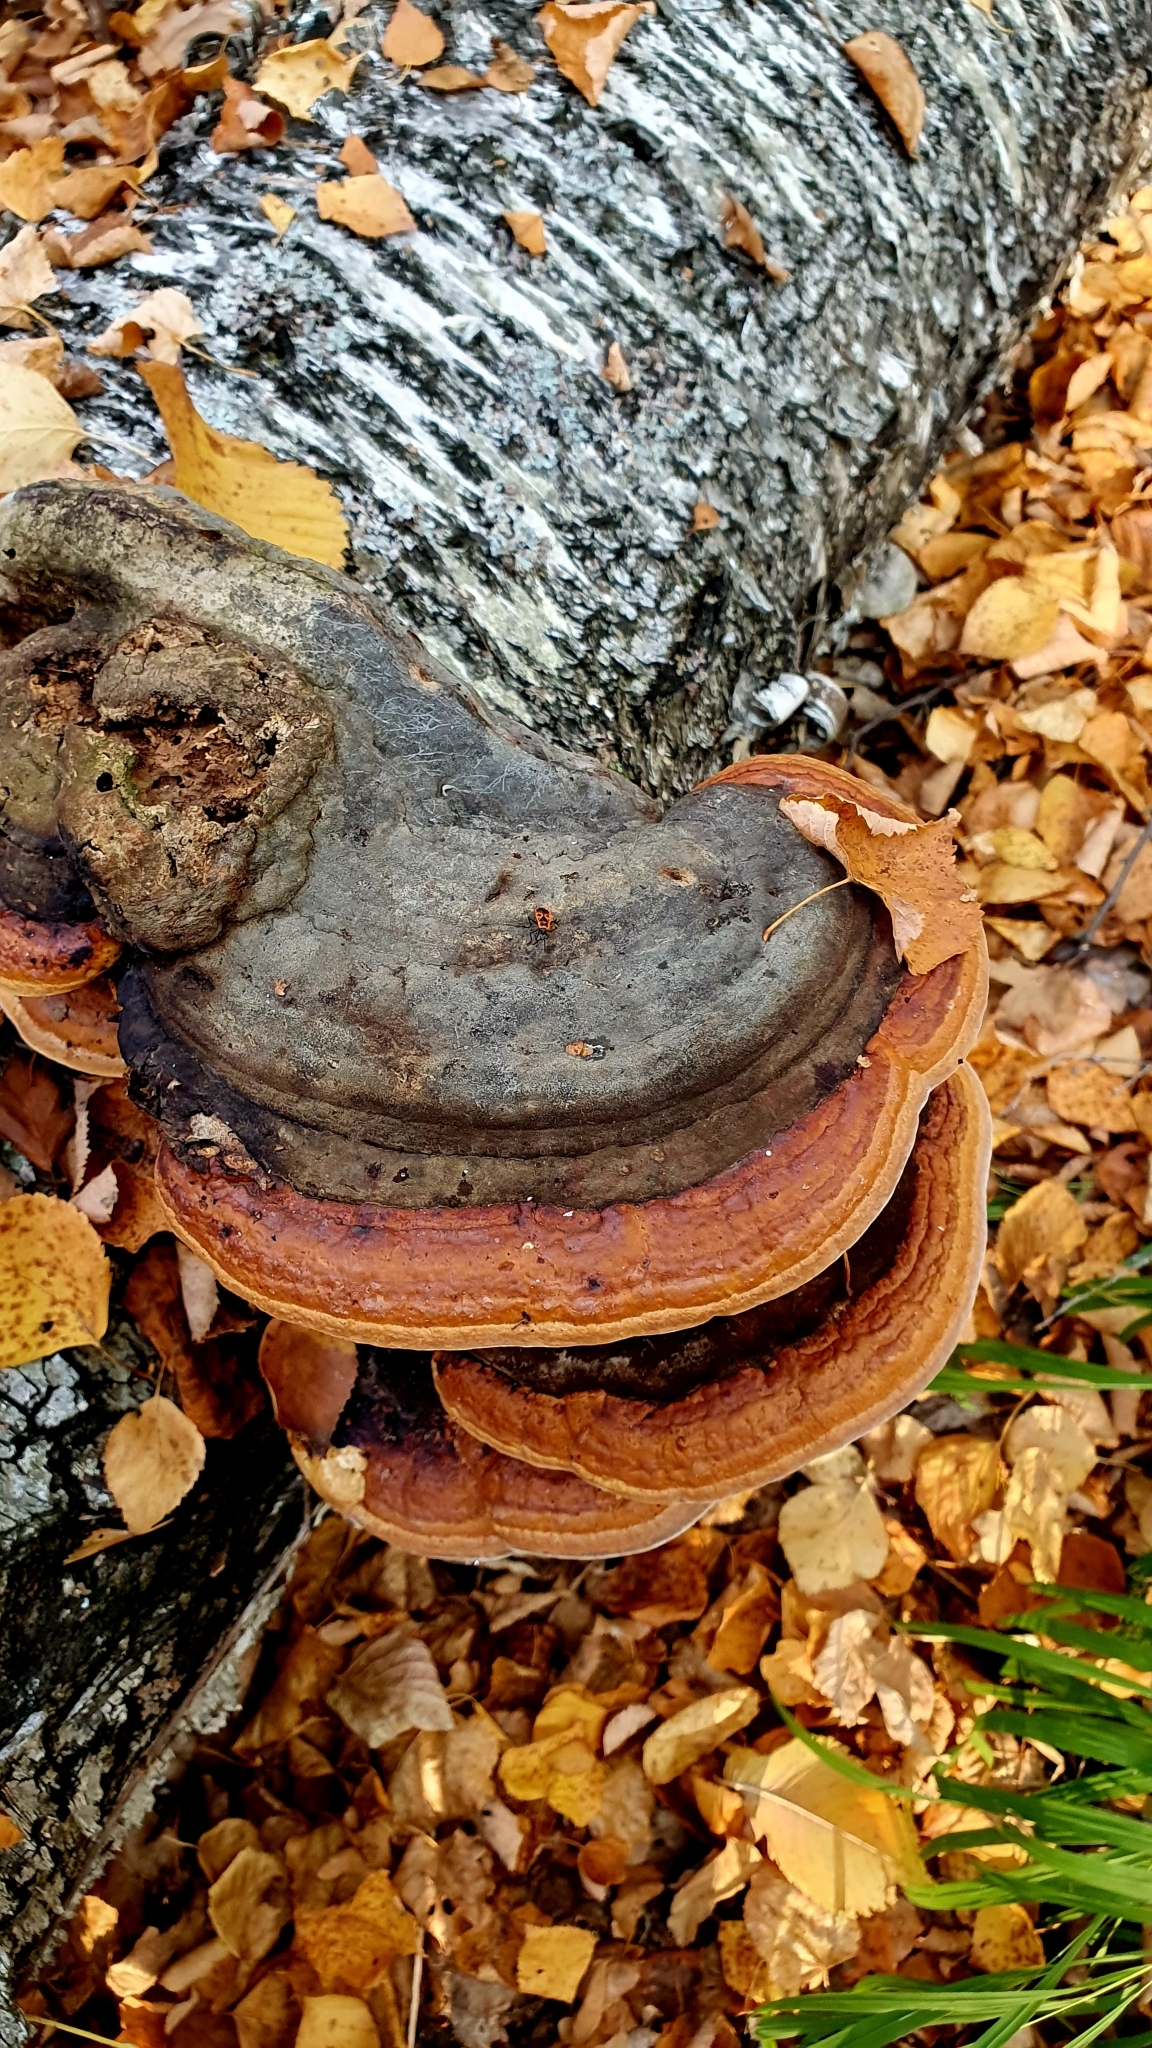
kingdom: Fungi
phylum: Basidiomycota
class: Agaricomycetes
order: Polyporales
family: Fomitopsidaceae
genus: Fomitopsis
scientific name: Fomitopsis pinicola
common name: Red-belted bracket
